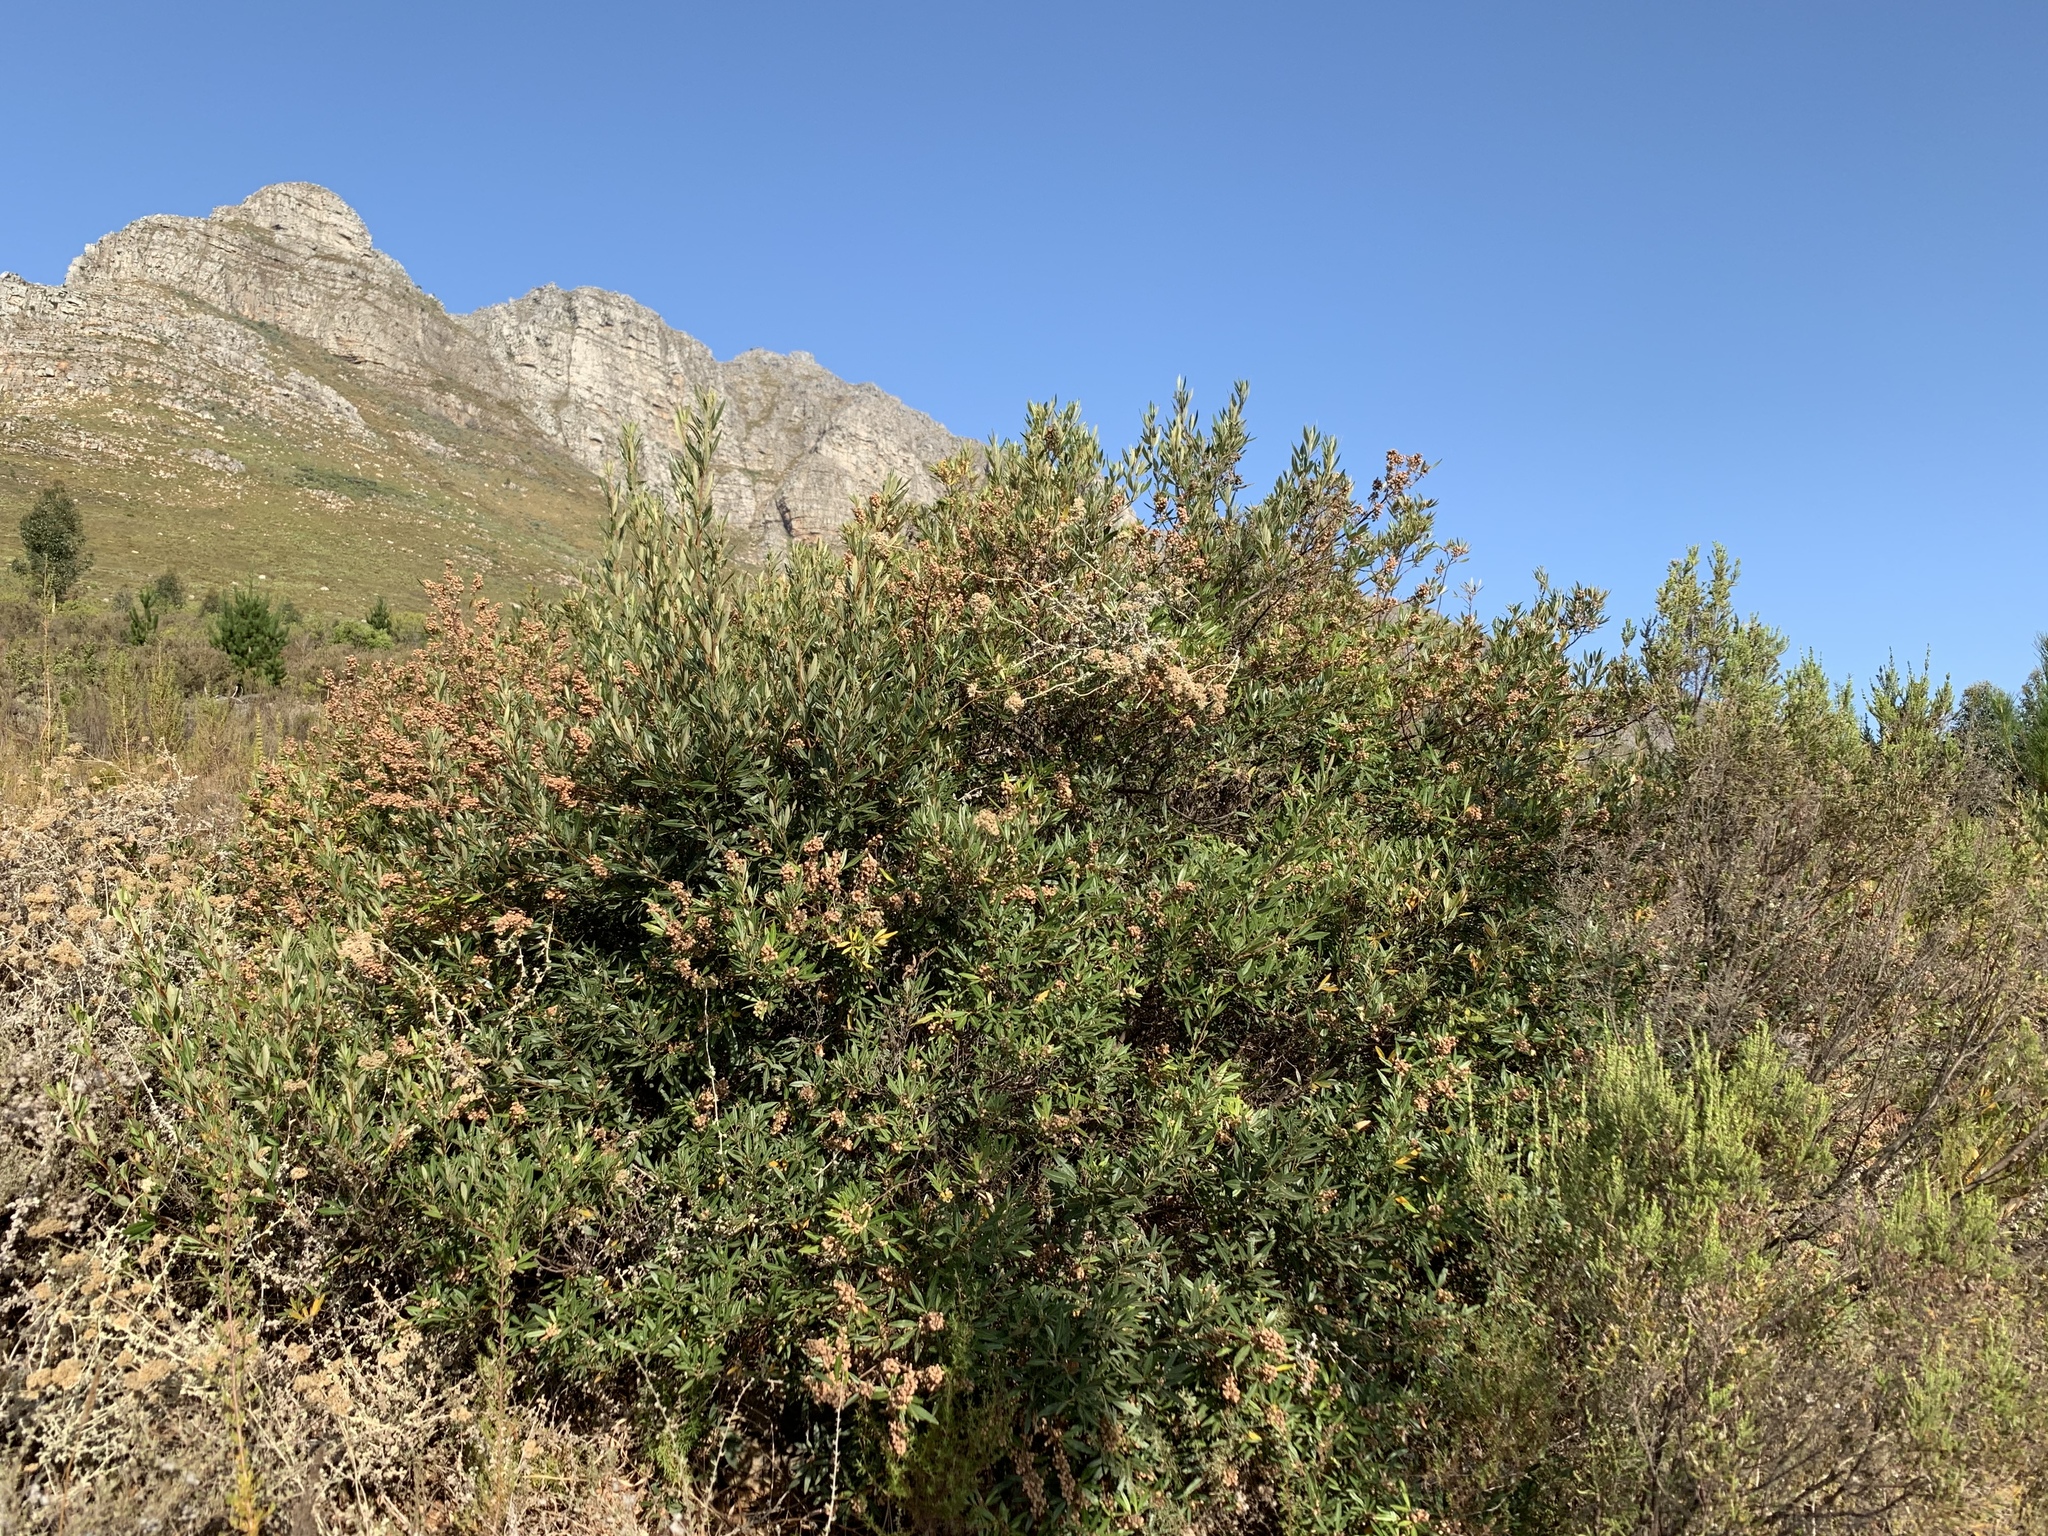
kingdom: Plantae
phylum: Tracheophyta
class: Magnoliopsida
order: Sapindales
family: Anacardiaceae
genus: Searsia
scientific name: Searsia angustifolia
